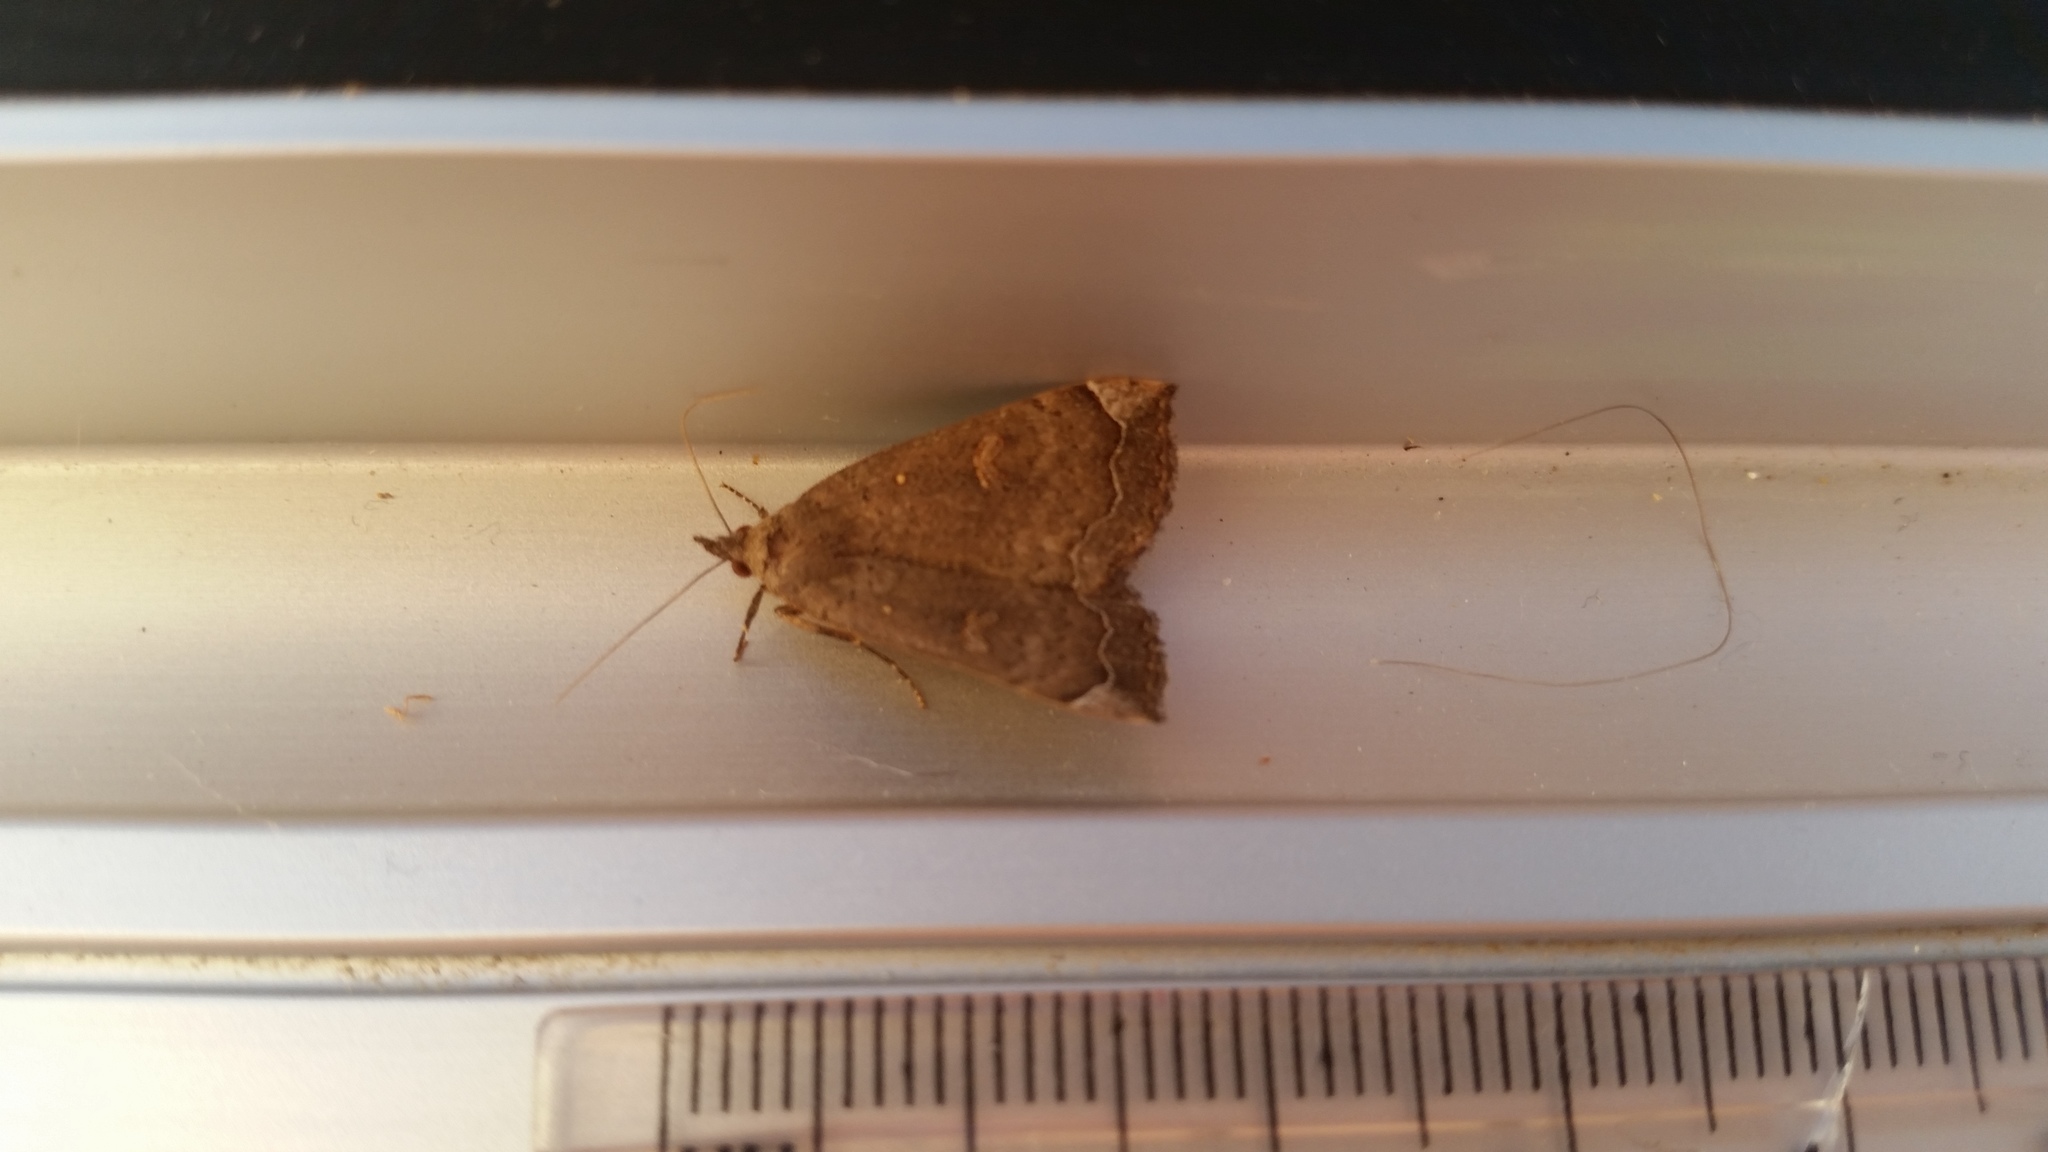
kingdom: Animalia
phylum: Arthropoda
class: Insecta
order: Lepidoptera
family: Erebidae
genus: Rhapsa
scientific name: Rhapsa scotosialis
